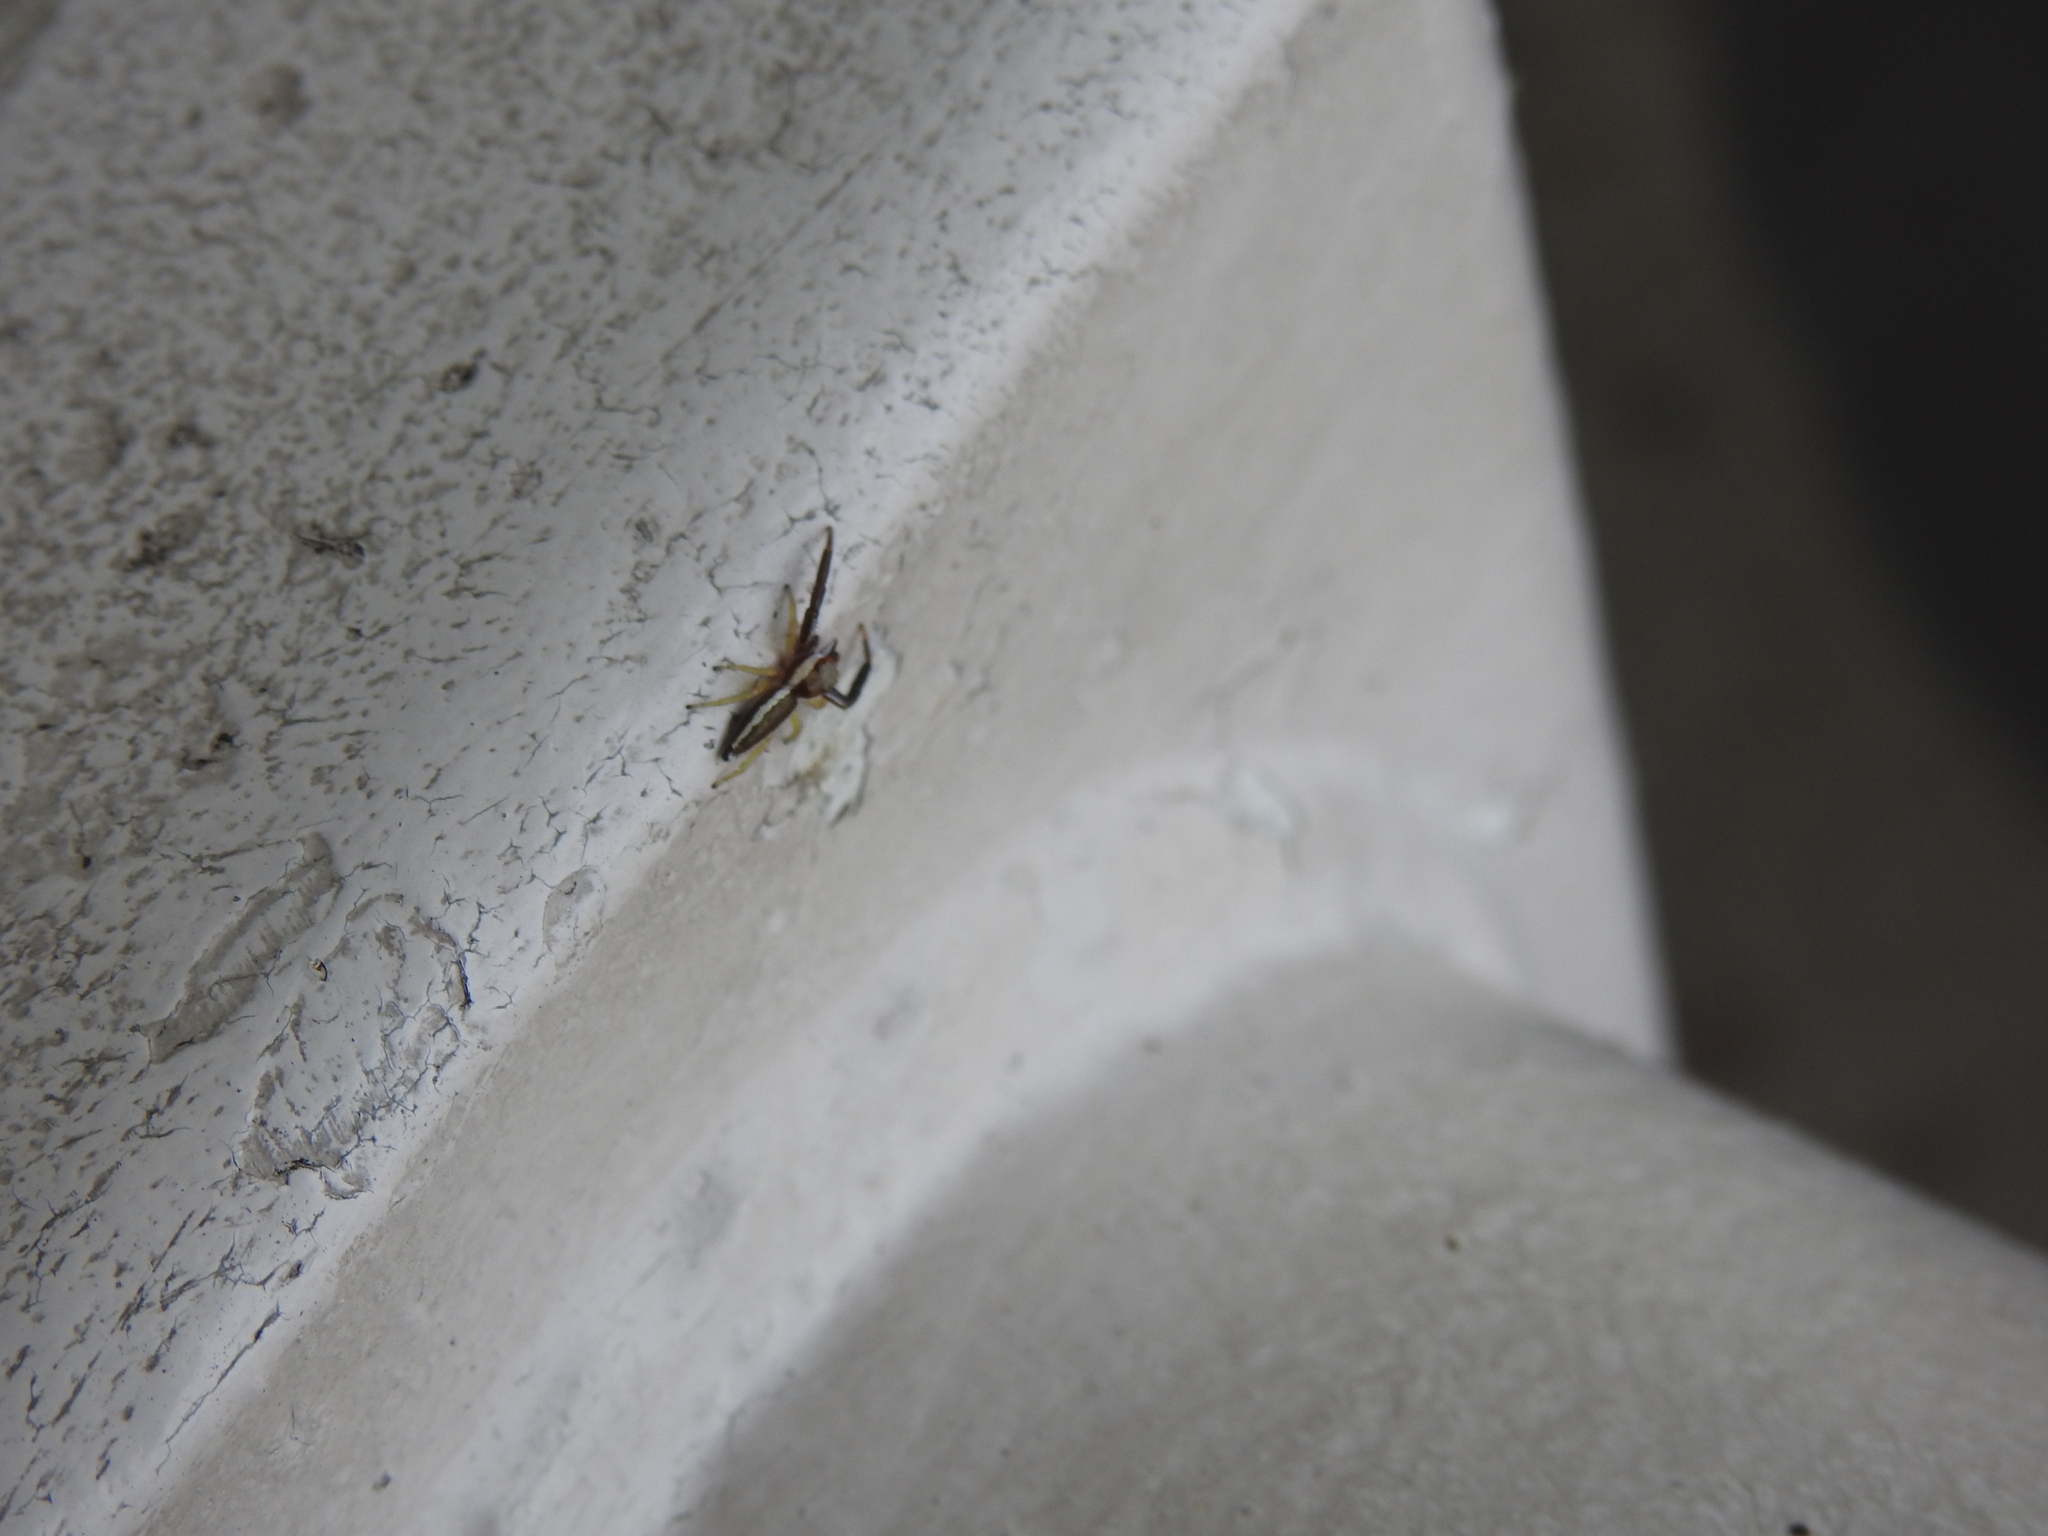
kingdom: Animalia
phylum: Arthropoda
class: Arachnida
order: Araneae
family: Salticidae
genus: Hentzia
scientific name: Hentzia palmarum
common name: Common hentz jumping spider
